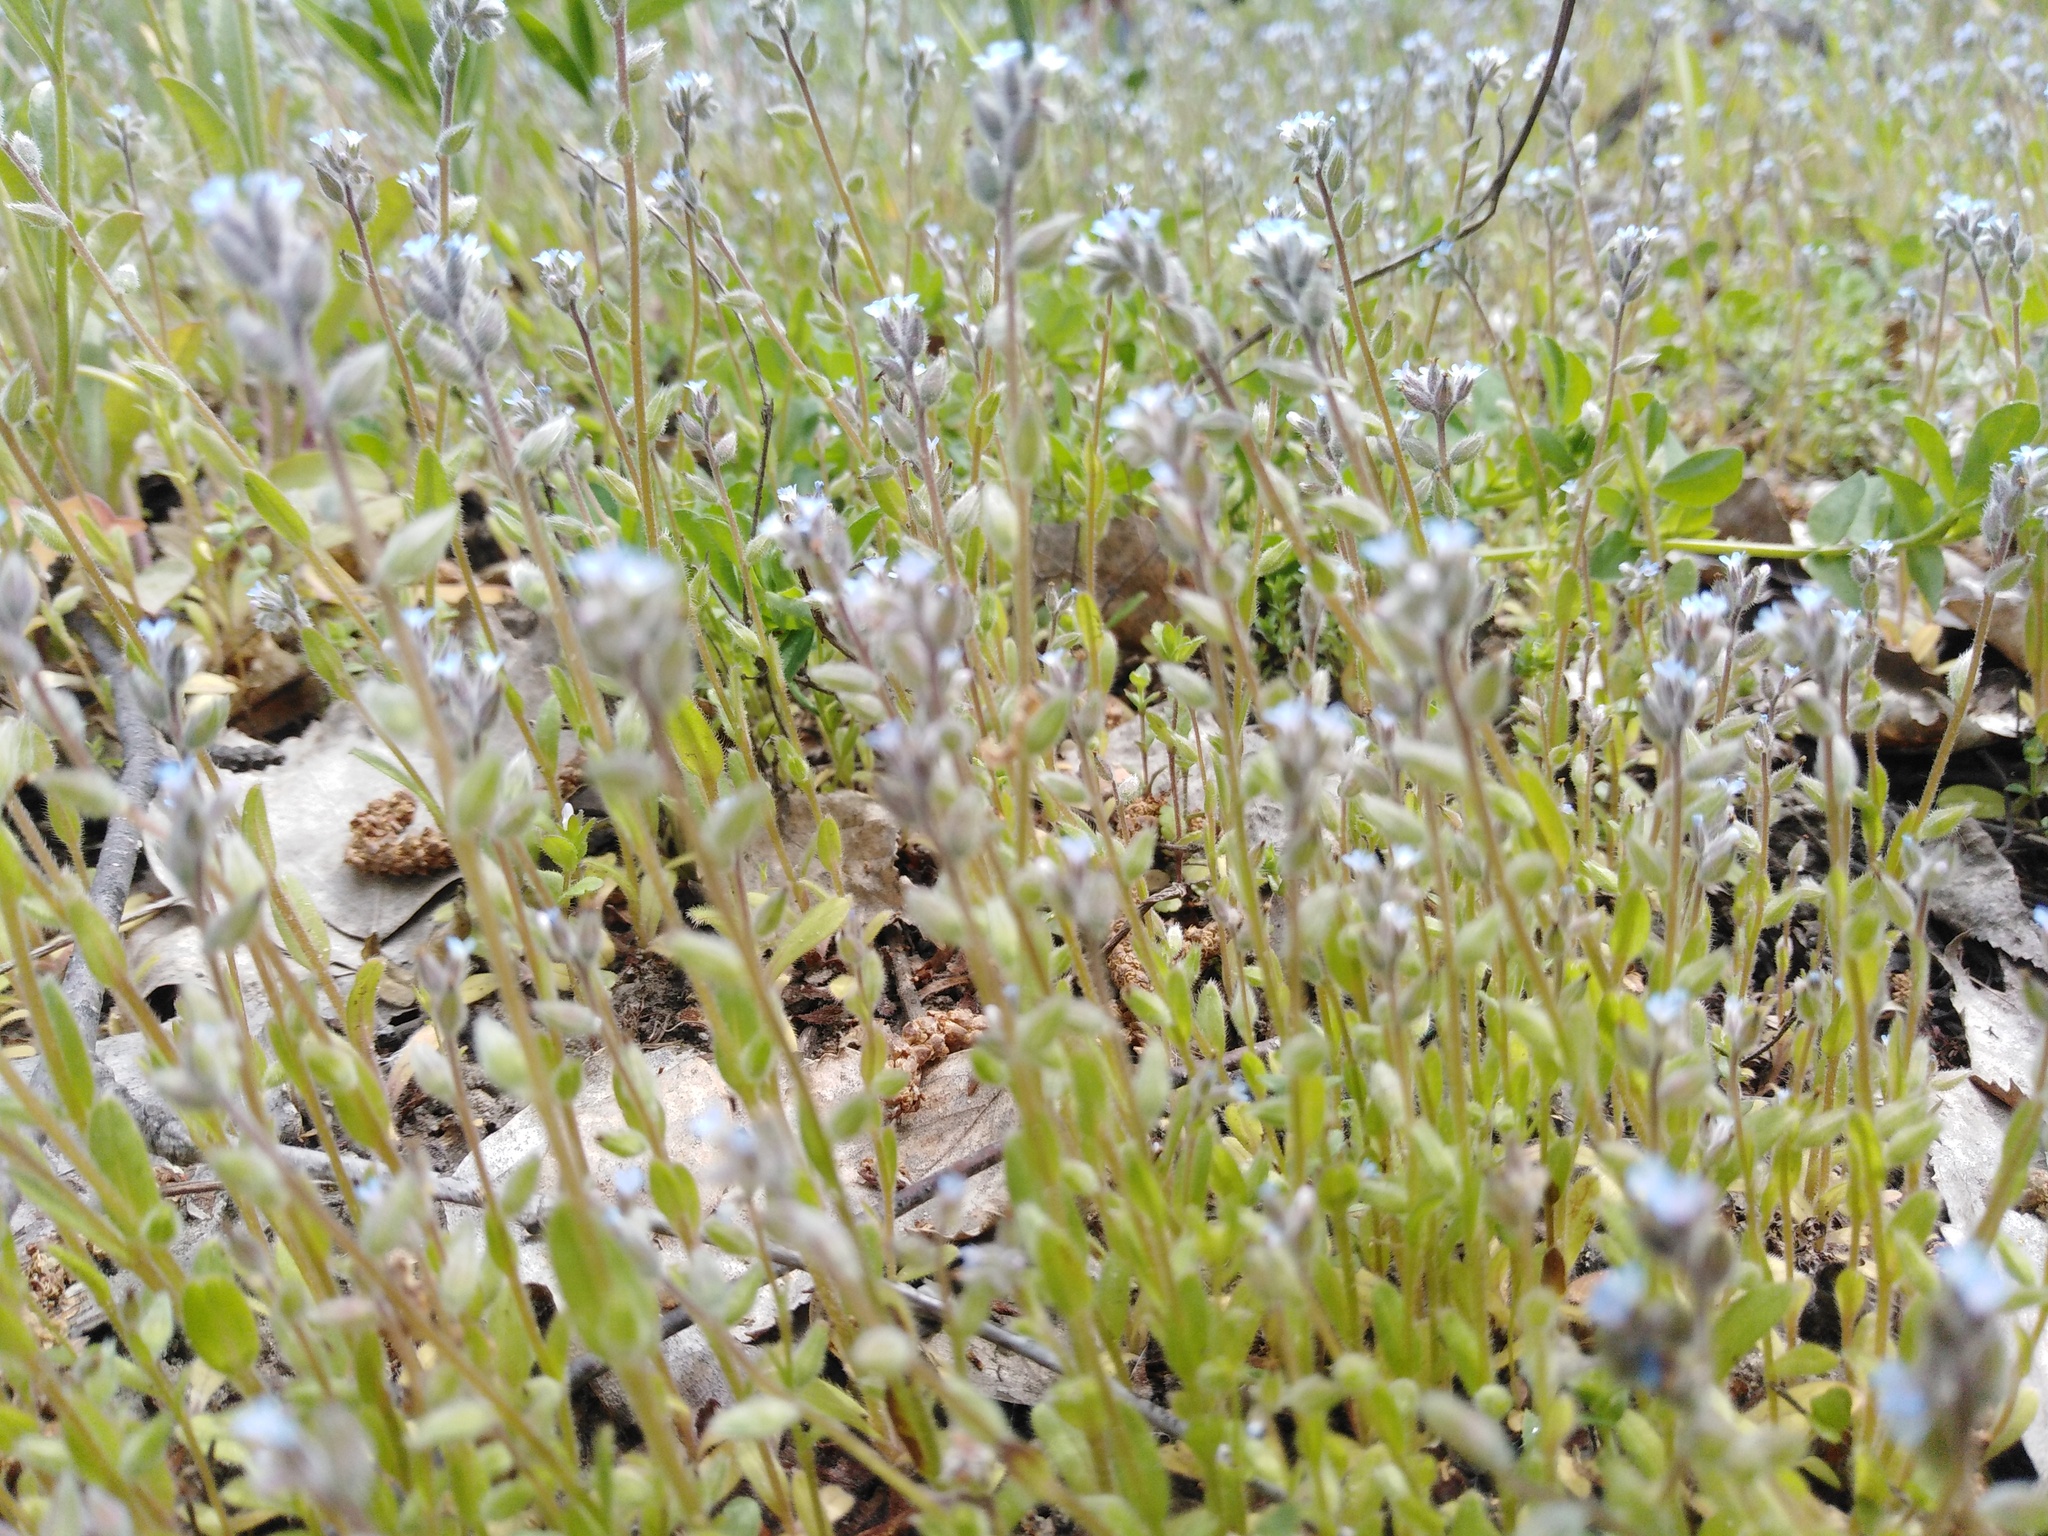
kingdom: Plantae
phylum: Tracheophyta
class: Magnoliopsida
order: Boraginales
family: Boraginaceae
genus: Myosotis
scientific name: Myosotis stricta
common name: Strict forget-me-not
